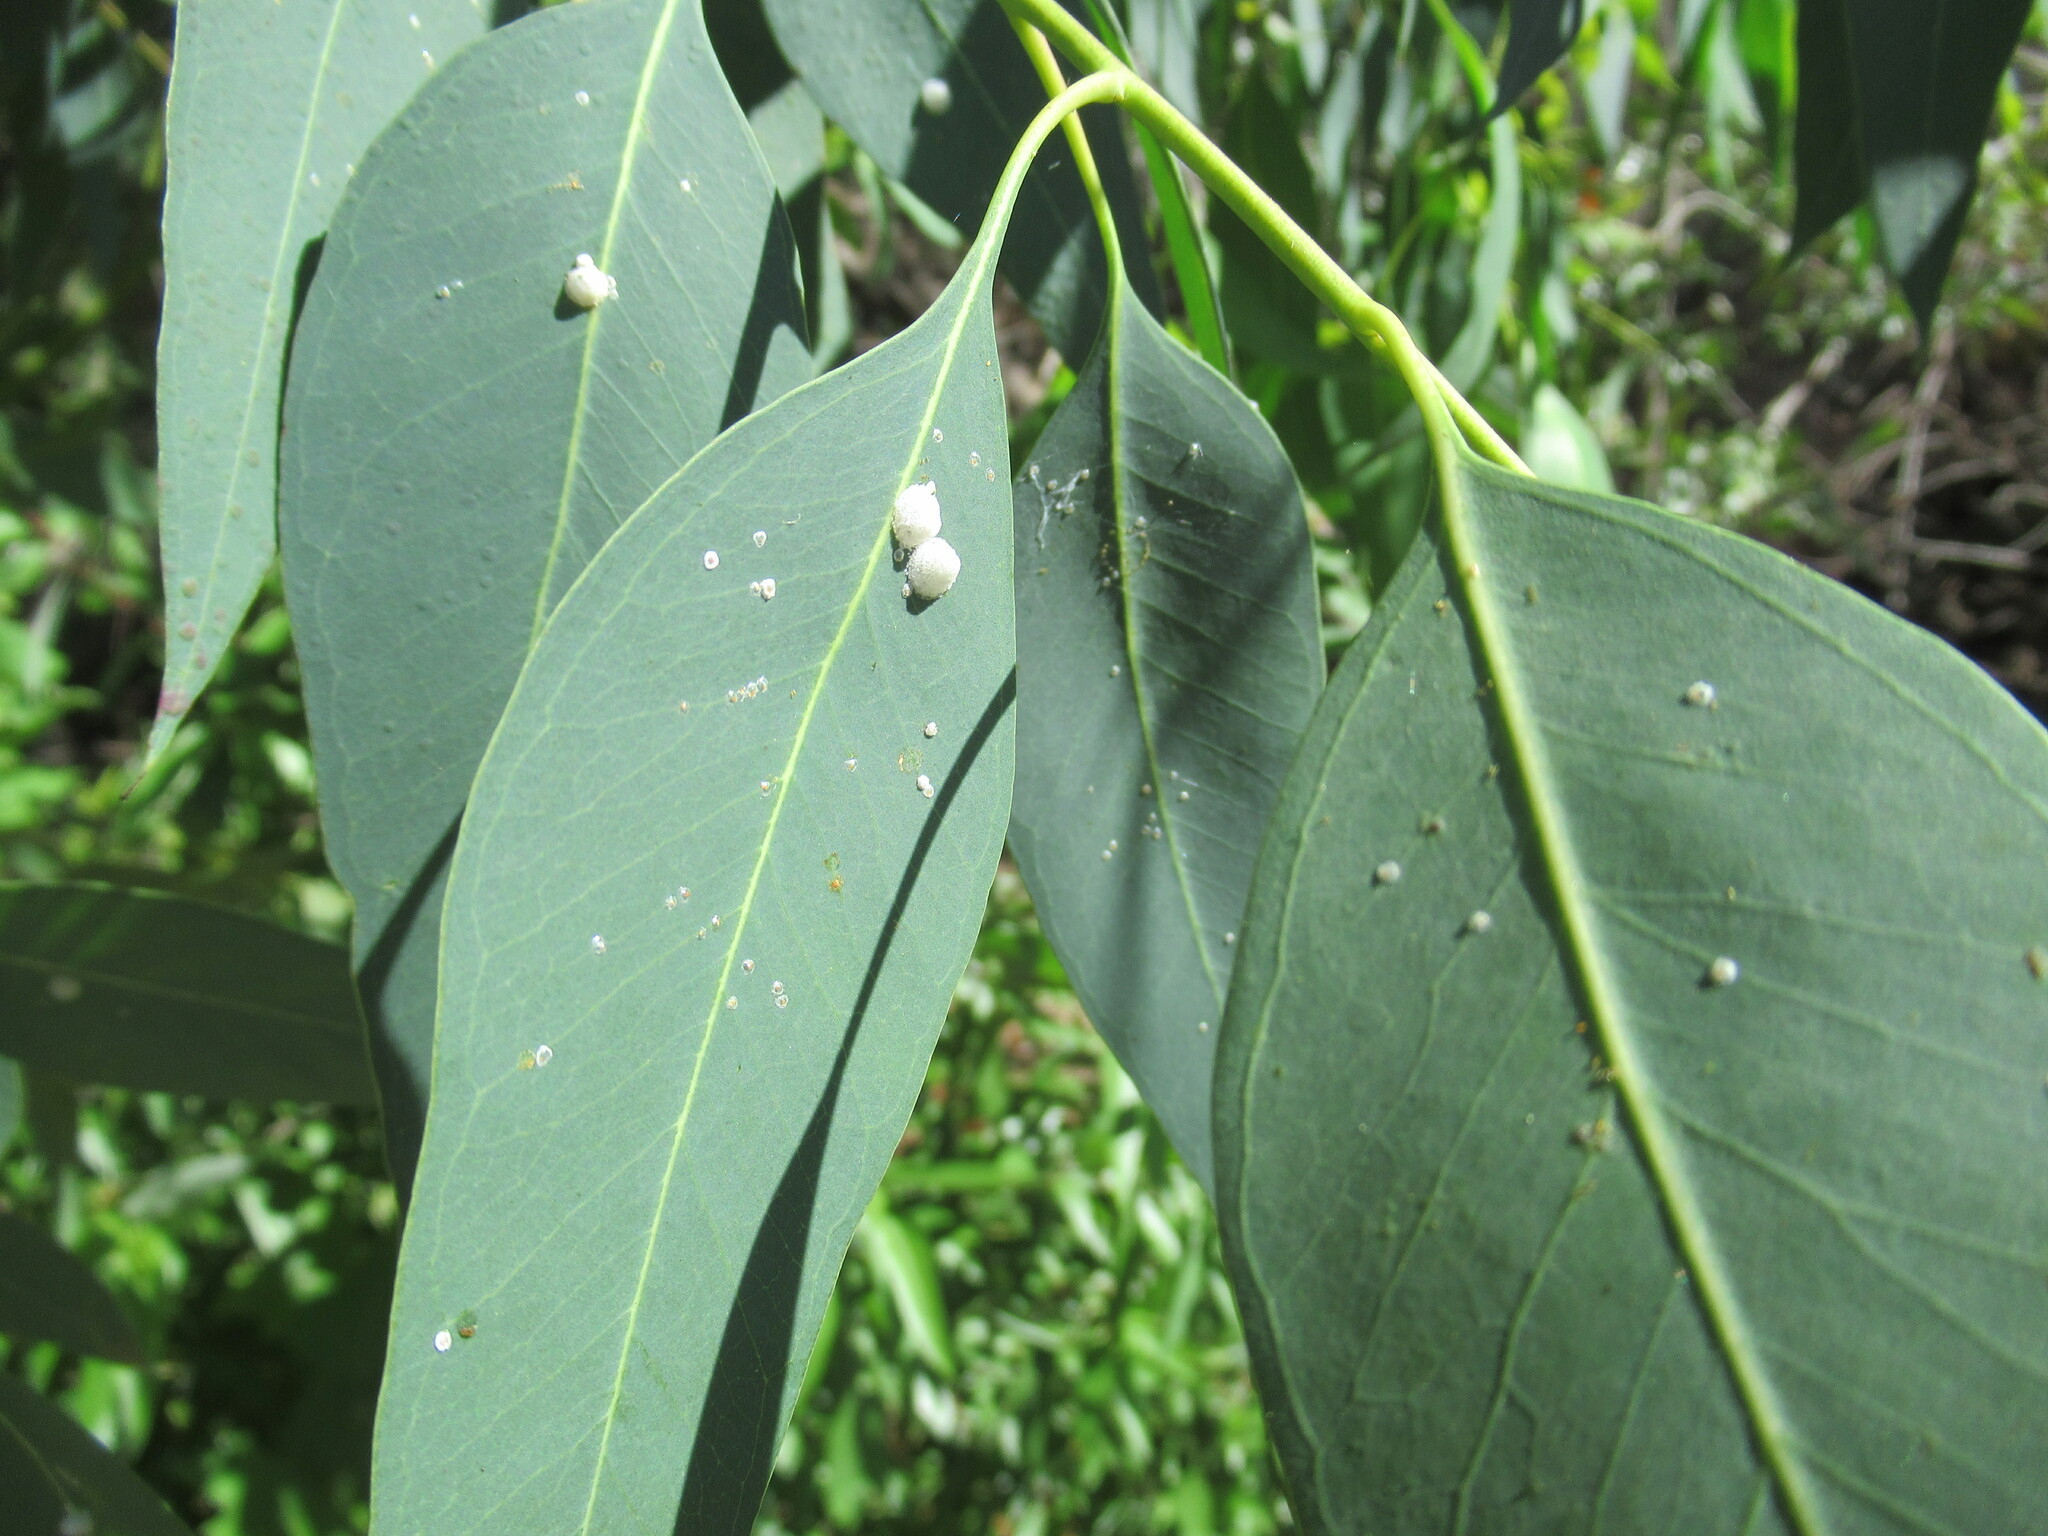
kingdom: Animalia
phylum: Arthropoda
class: Insecta
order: Hemiptera
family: Aphalaridae
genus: Glycaspis
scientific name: Glycaspis brimblecombei
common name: Red gum lerp psyllid
